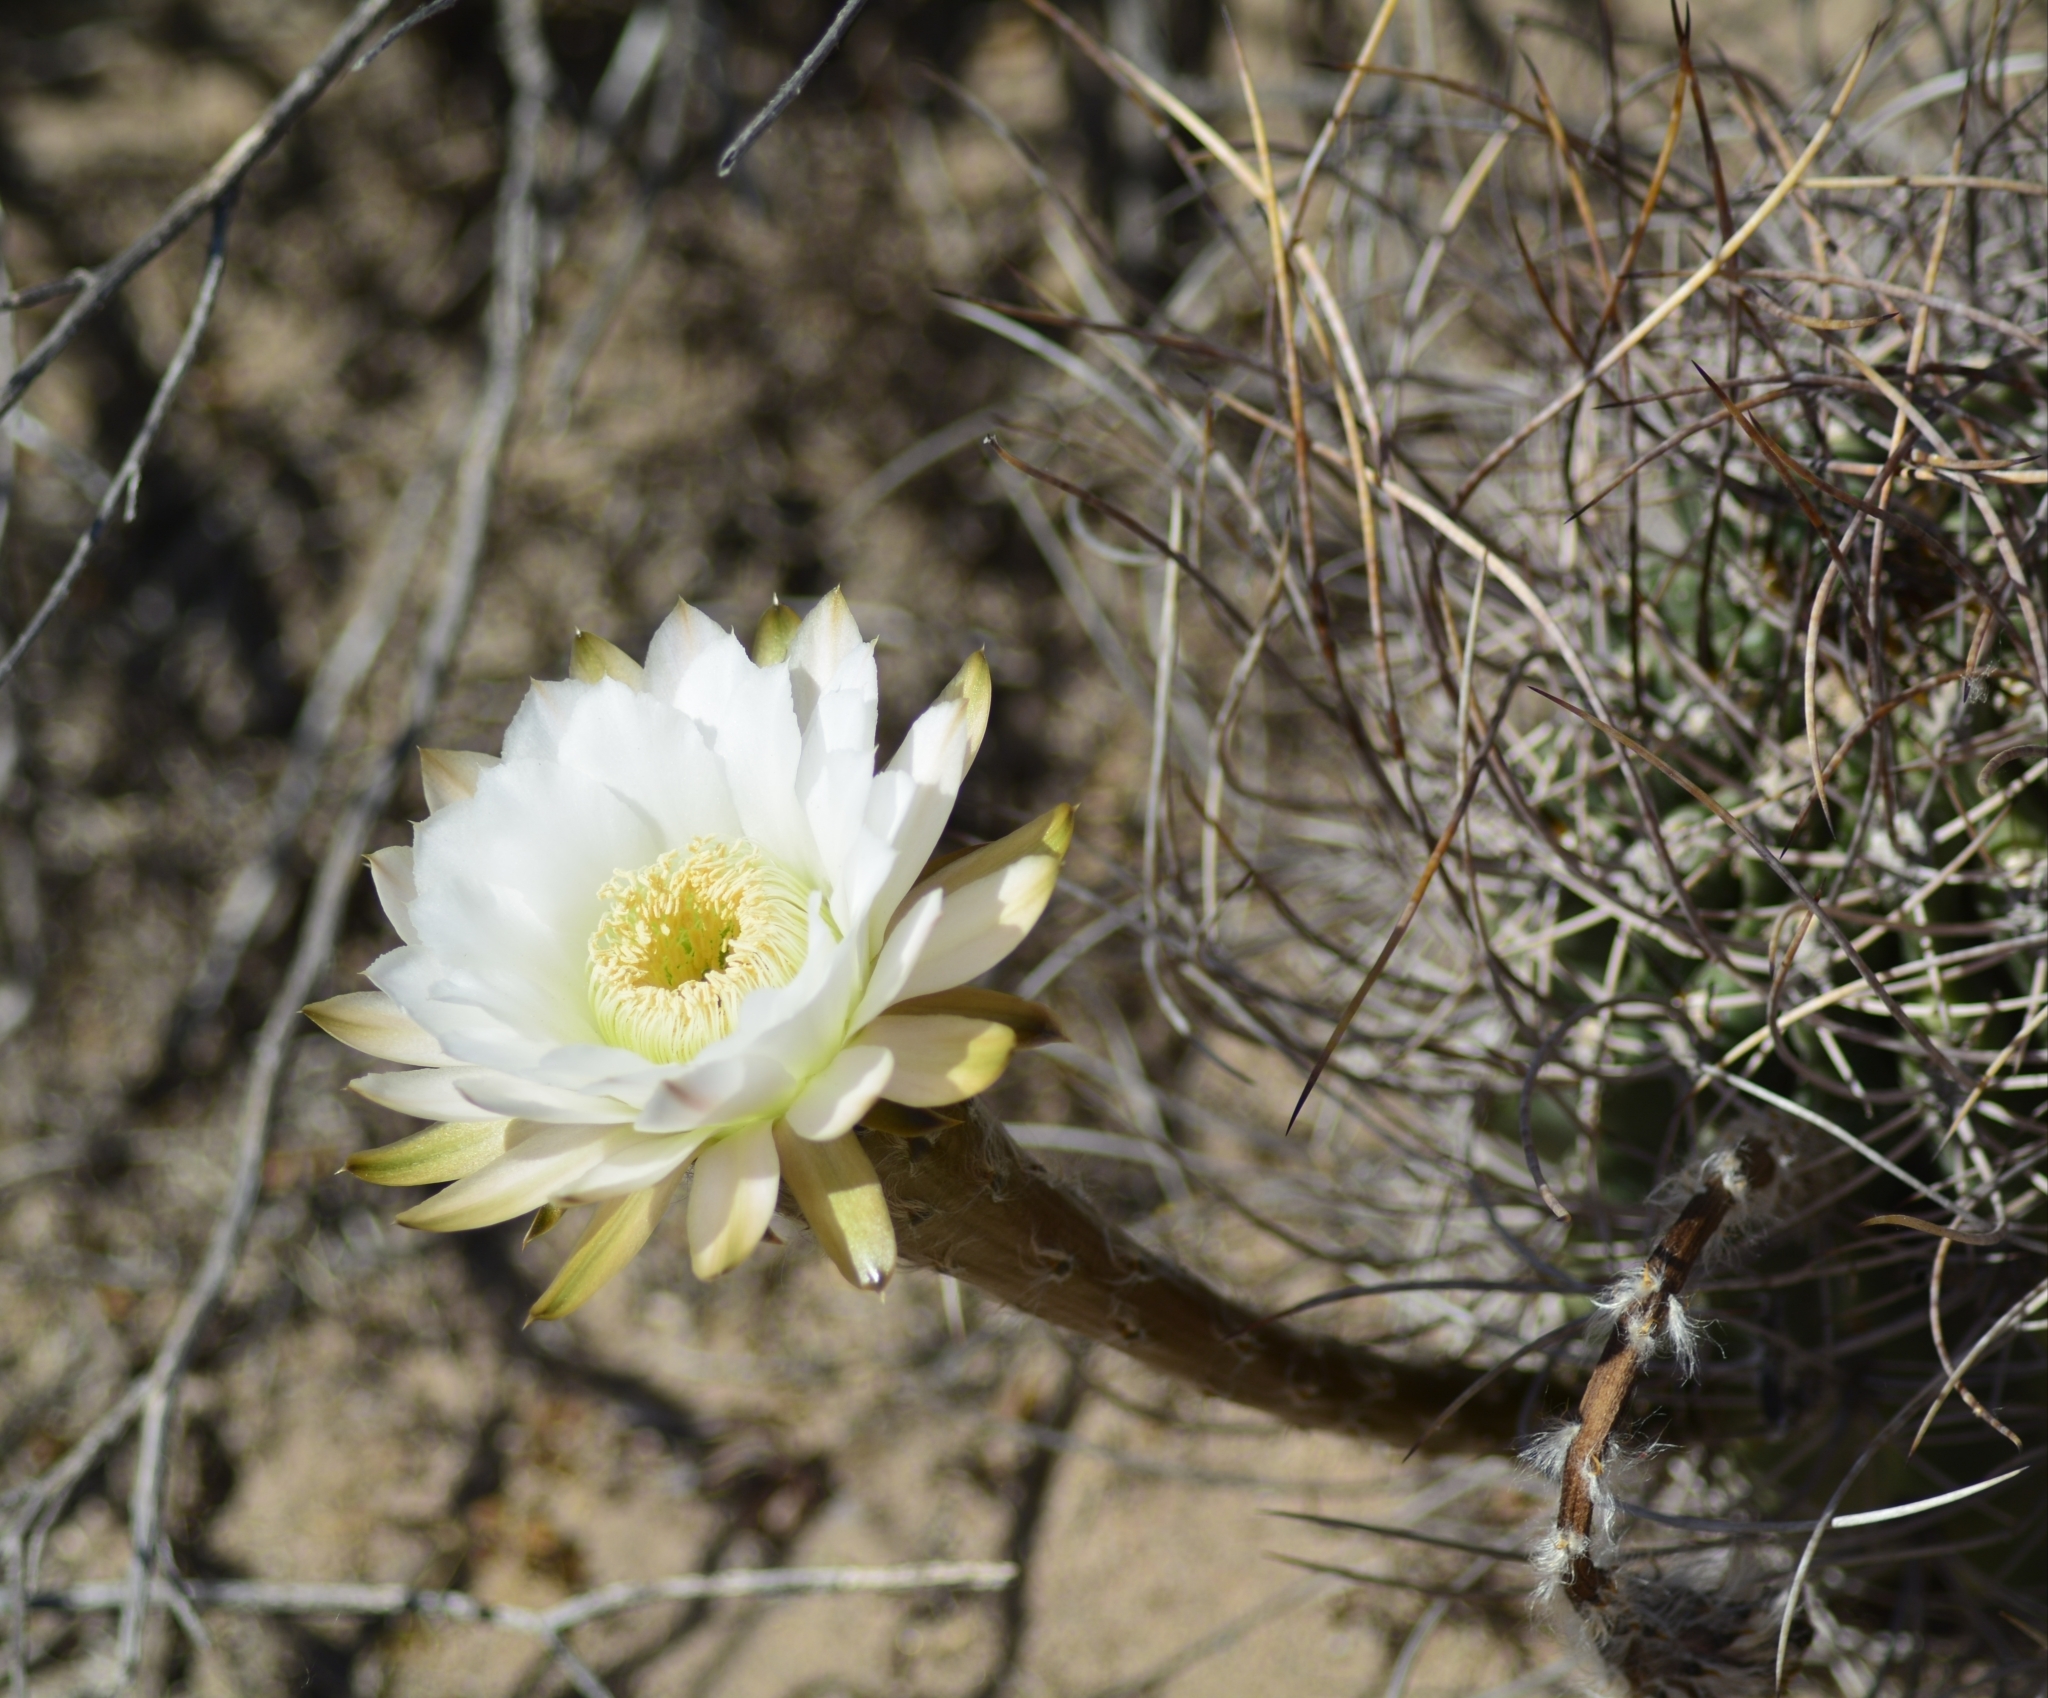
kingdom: Plantae
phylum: Tracheophyta
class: Magnoliopsida
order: Caryophyllales
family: Cactaceae
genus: Acanthocalycium
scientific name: Acanthocalycium leucanthum
